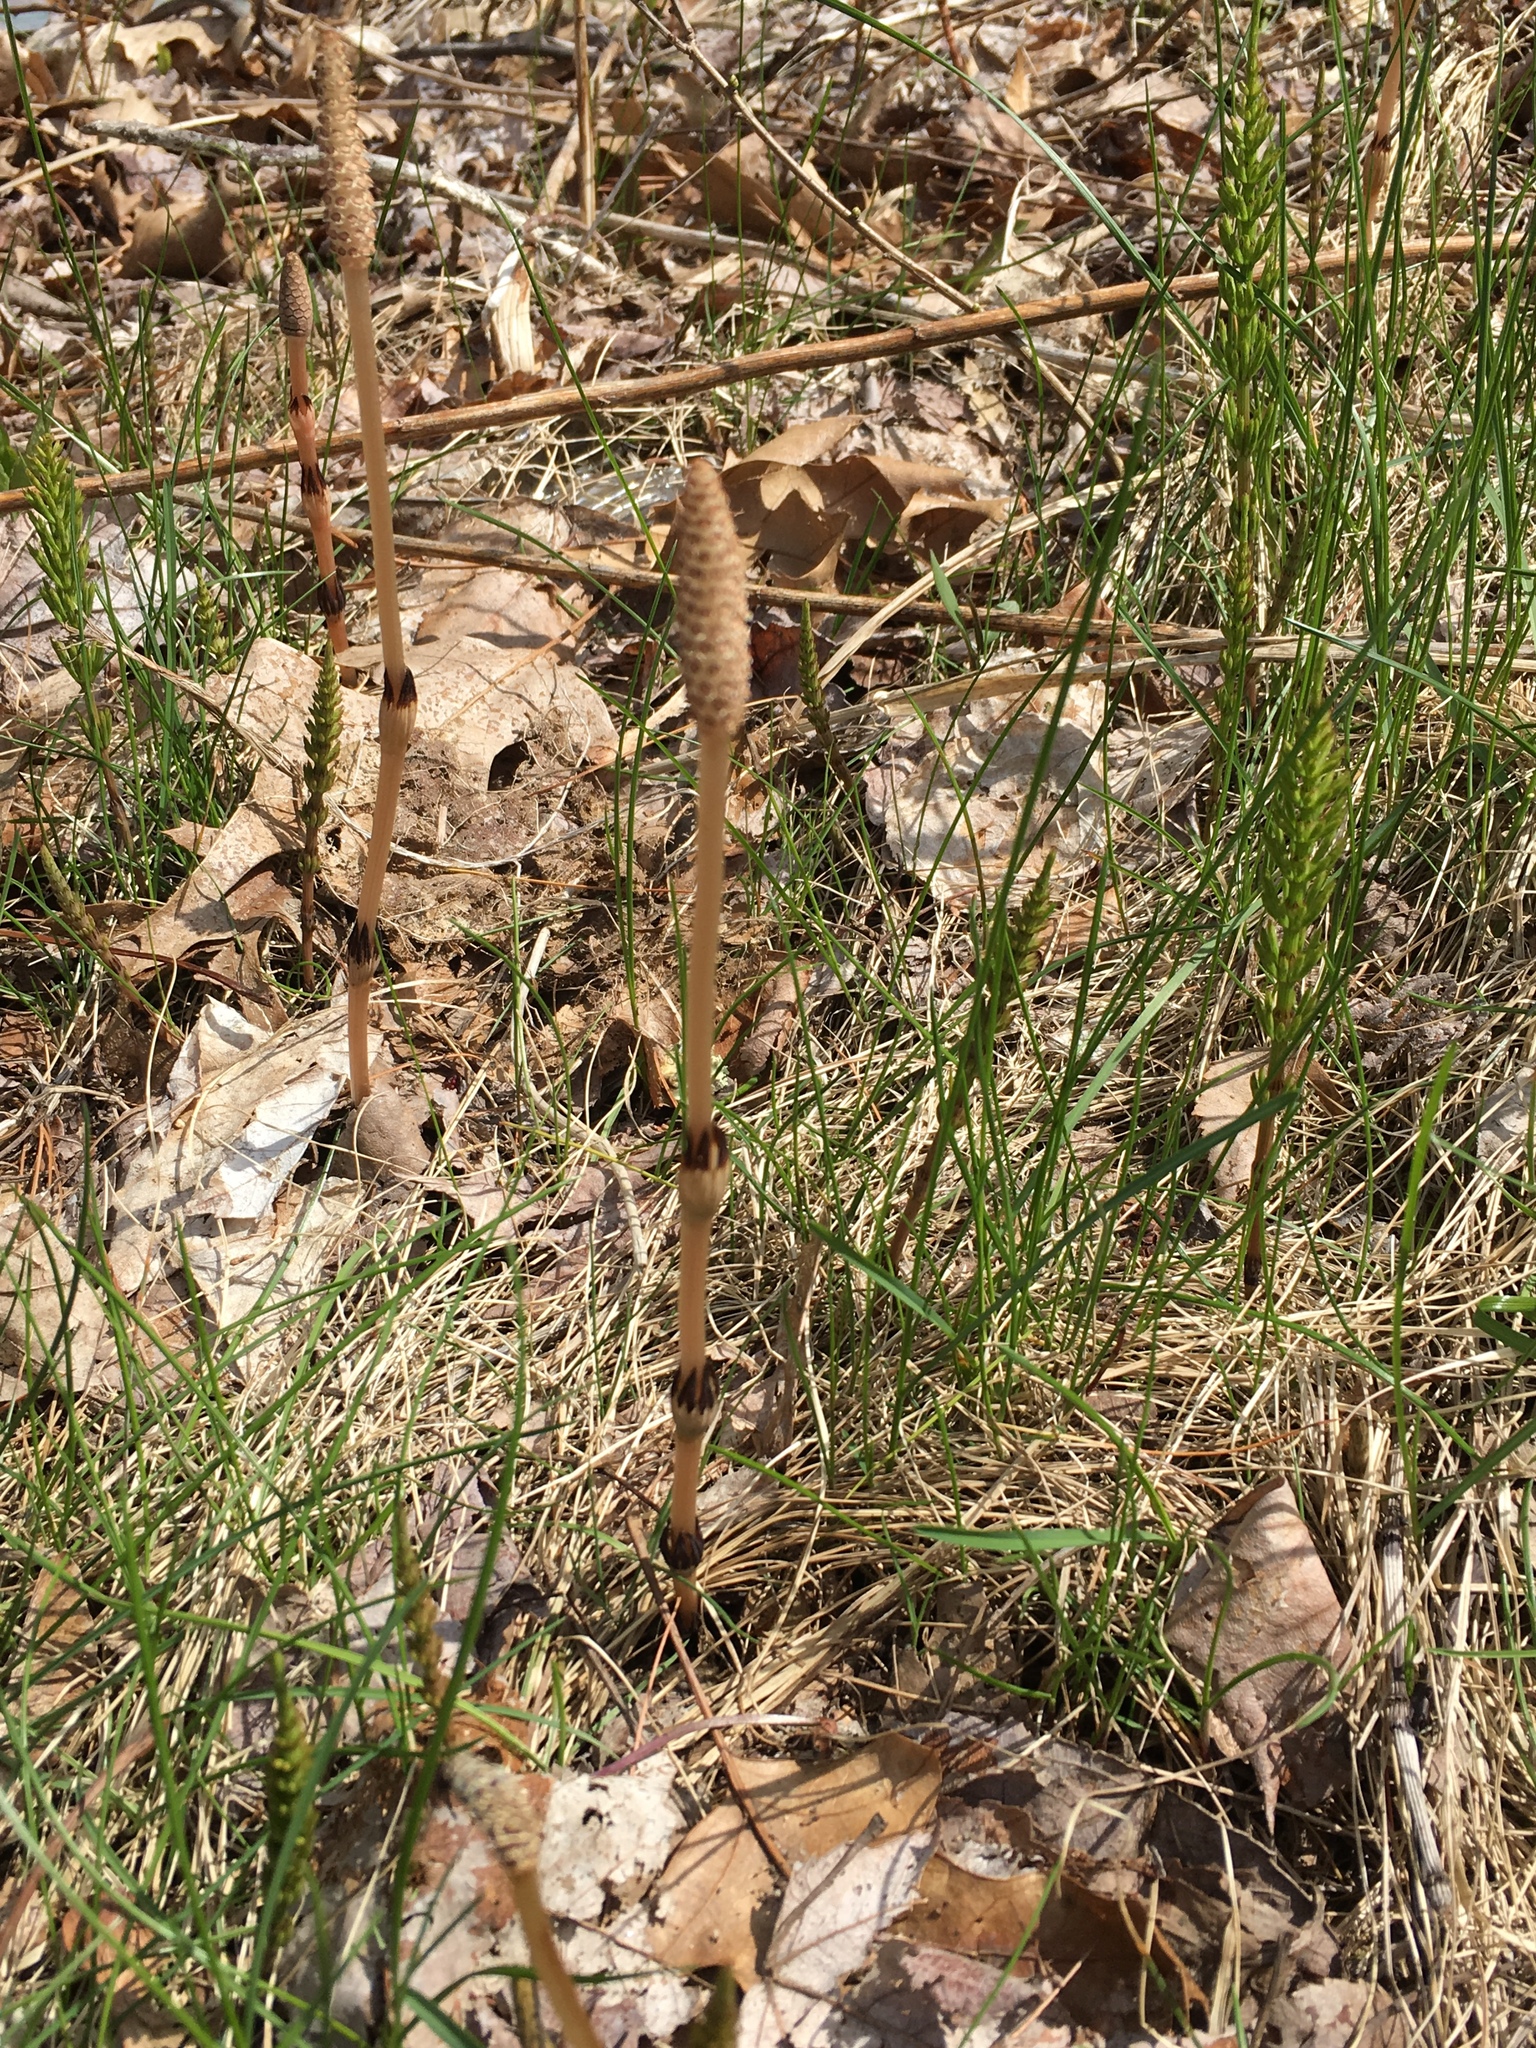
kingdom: Plantae
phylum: Tracheophyta
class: Polypodiopsida
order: Equisetales
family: Equisetaceae
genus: Equisetum
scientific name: Equisetum arvense
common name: Field horsetail
